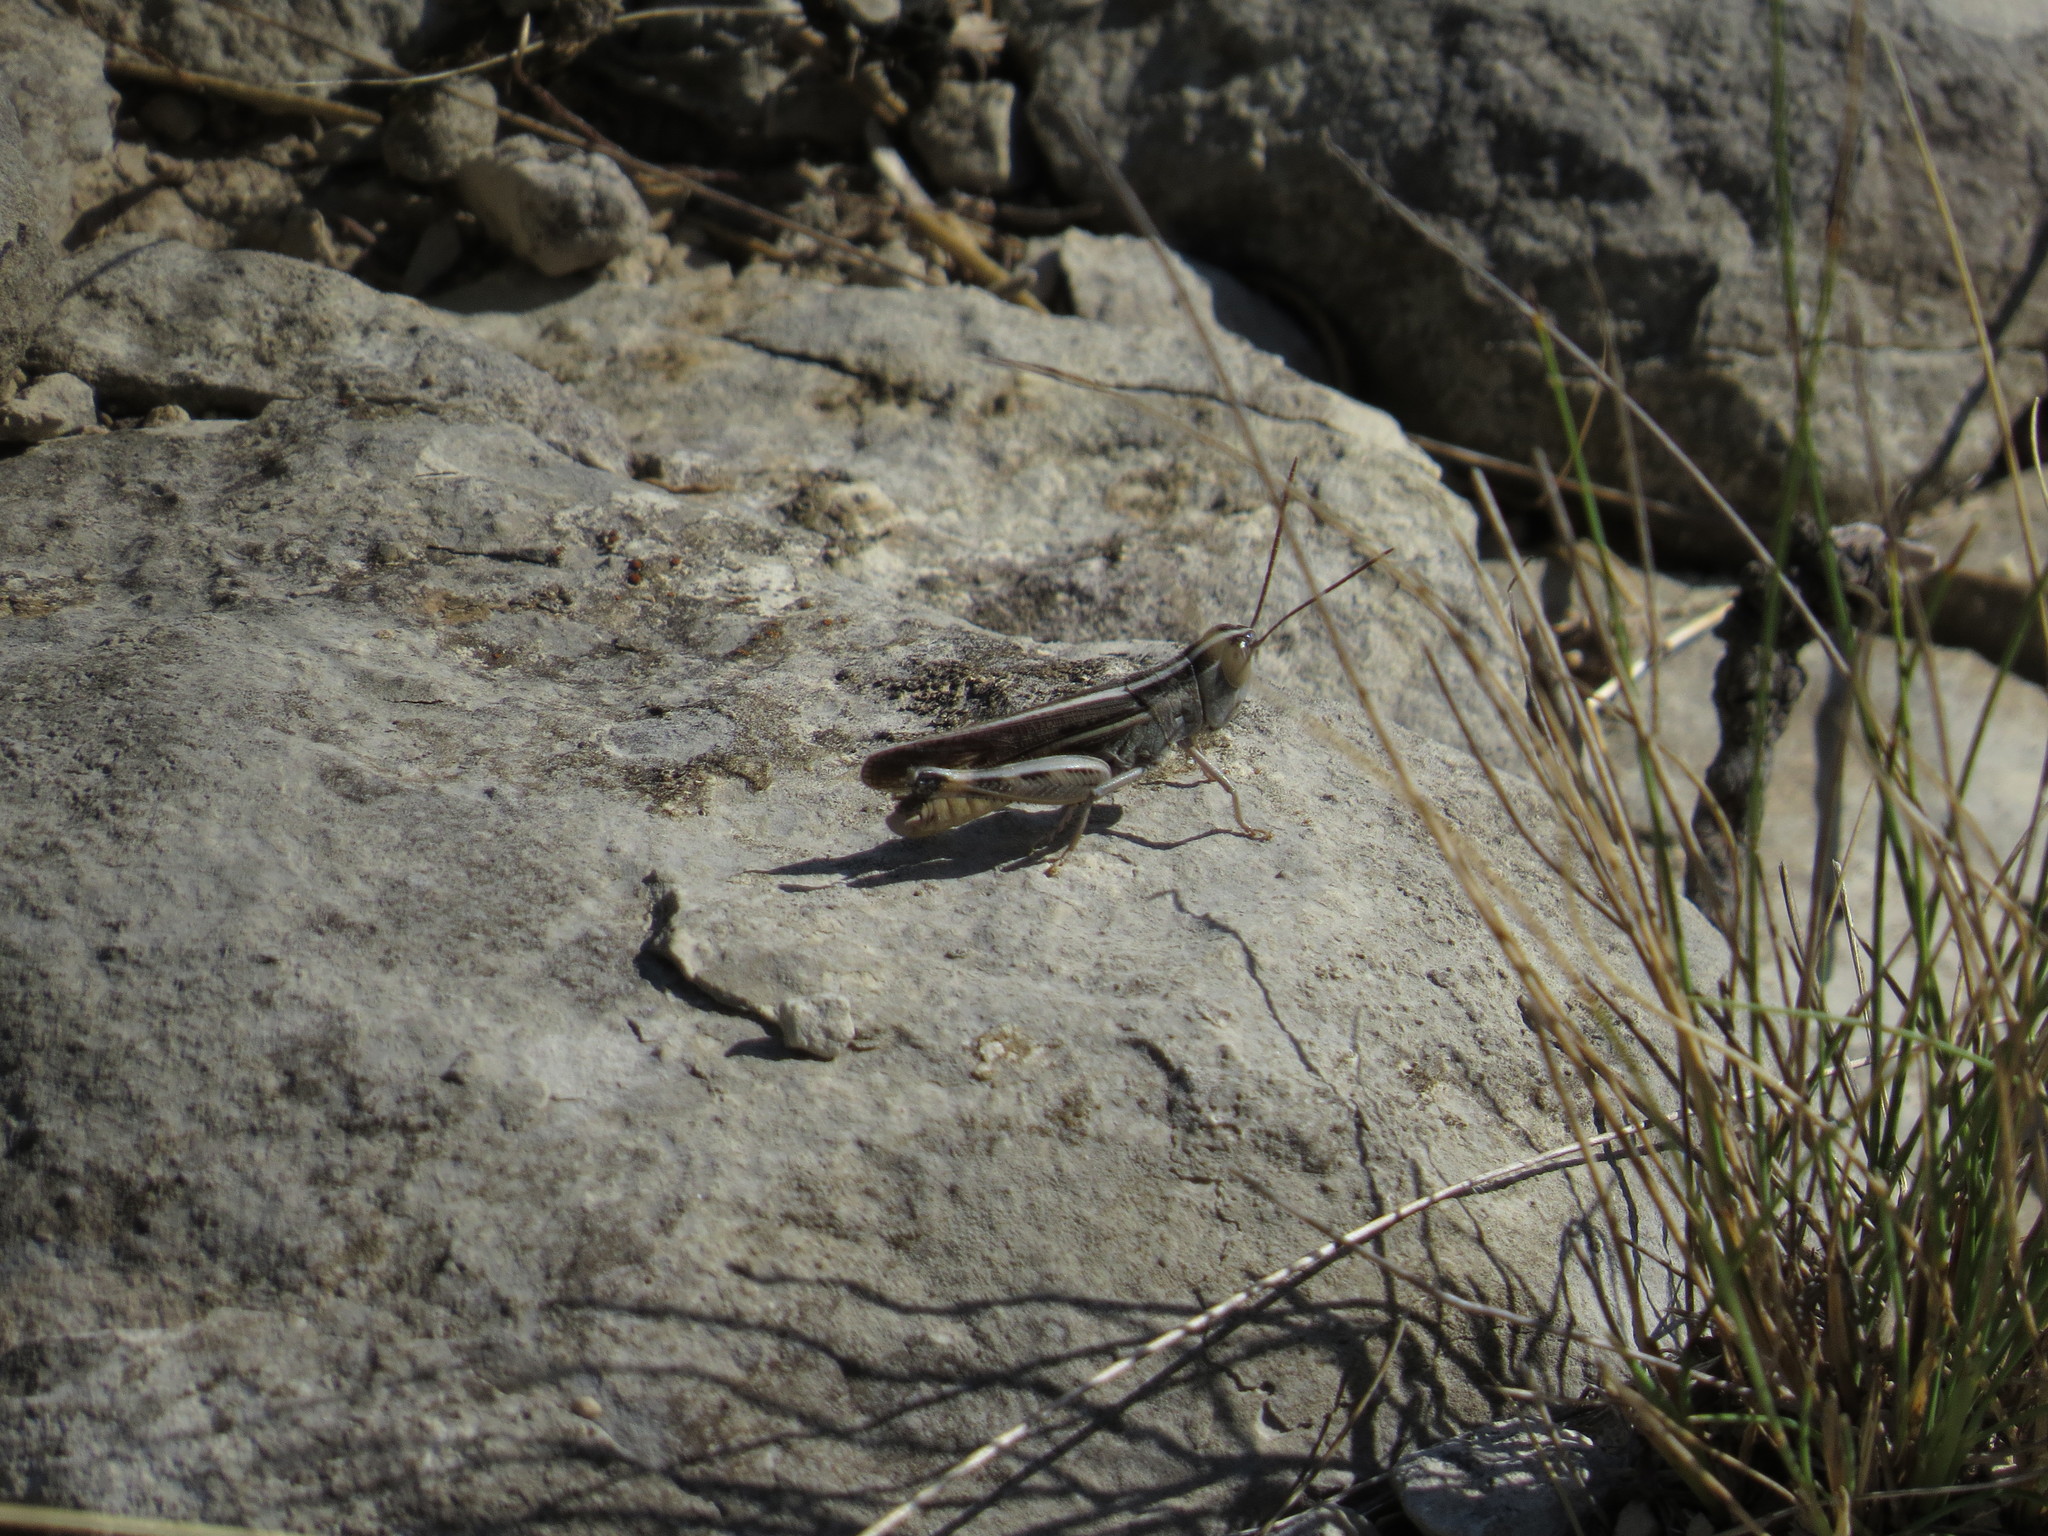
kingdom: Animalia
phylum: Arthropoda
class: Insecta
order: Orthoptera
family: Acrididae
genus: Ramburiella
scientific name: Ramburiella hispanica
